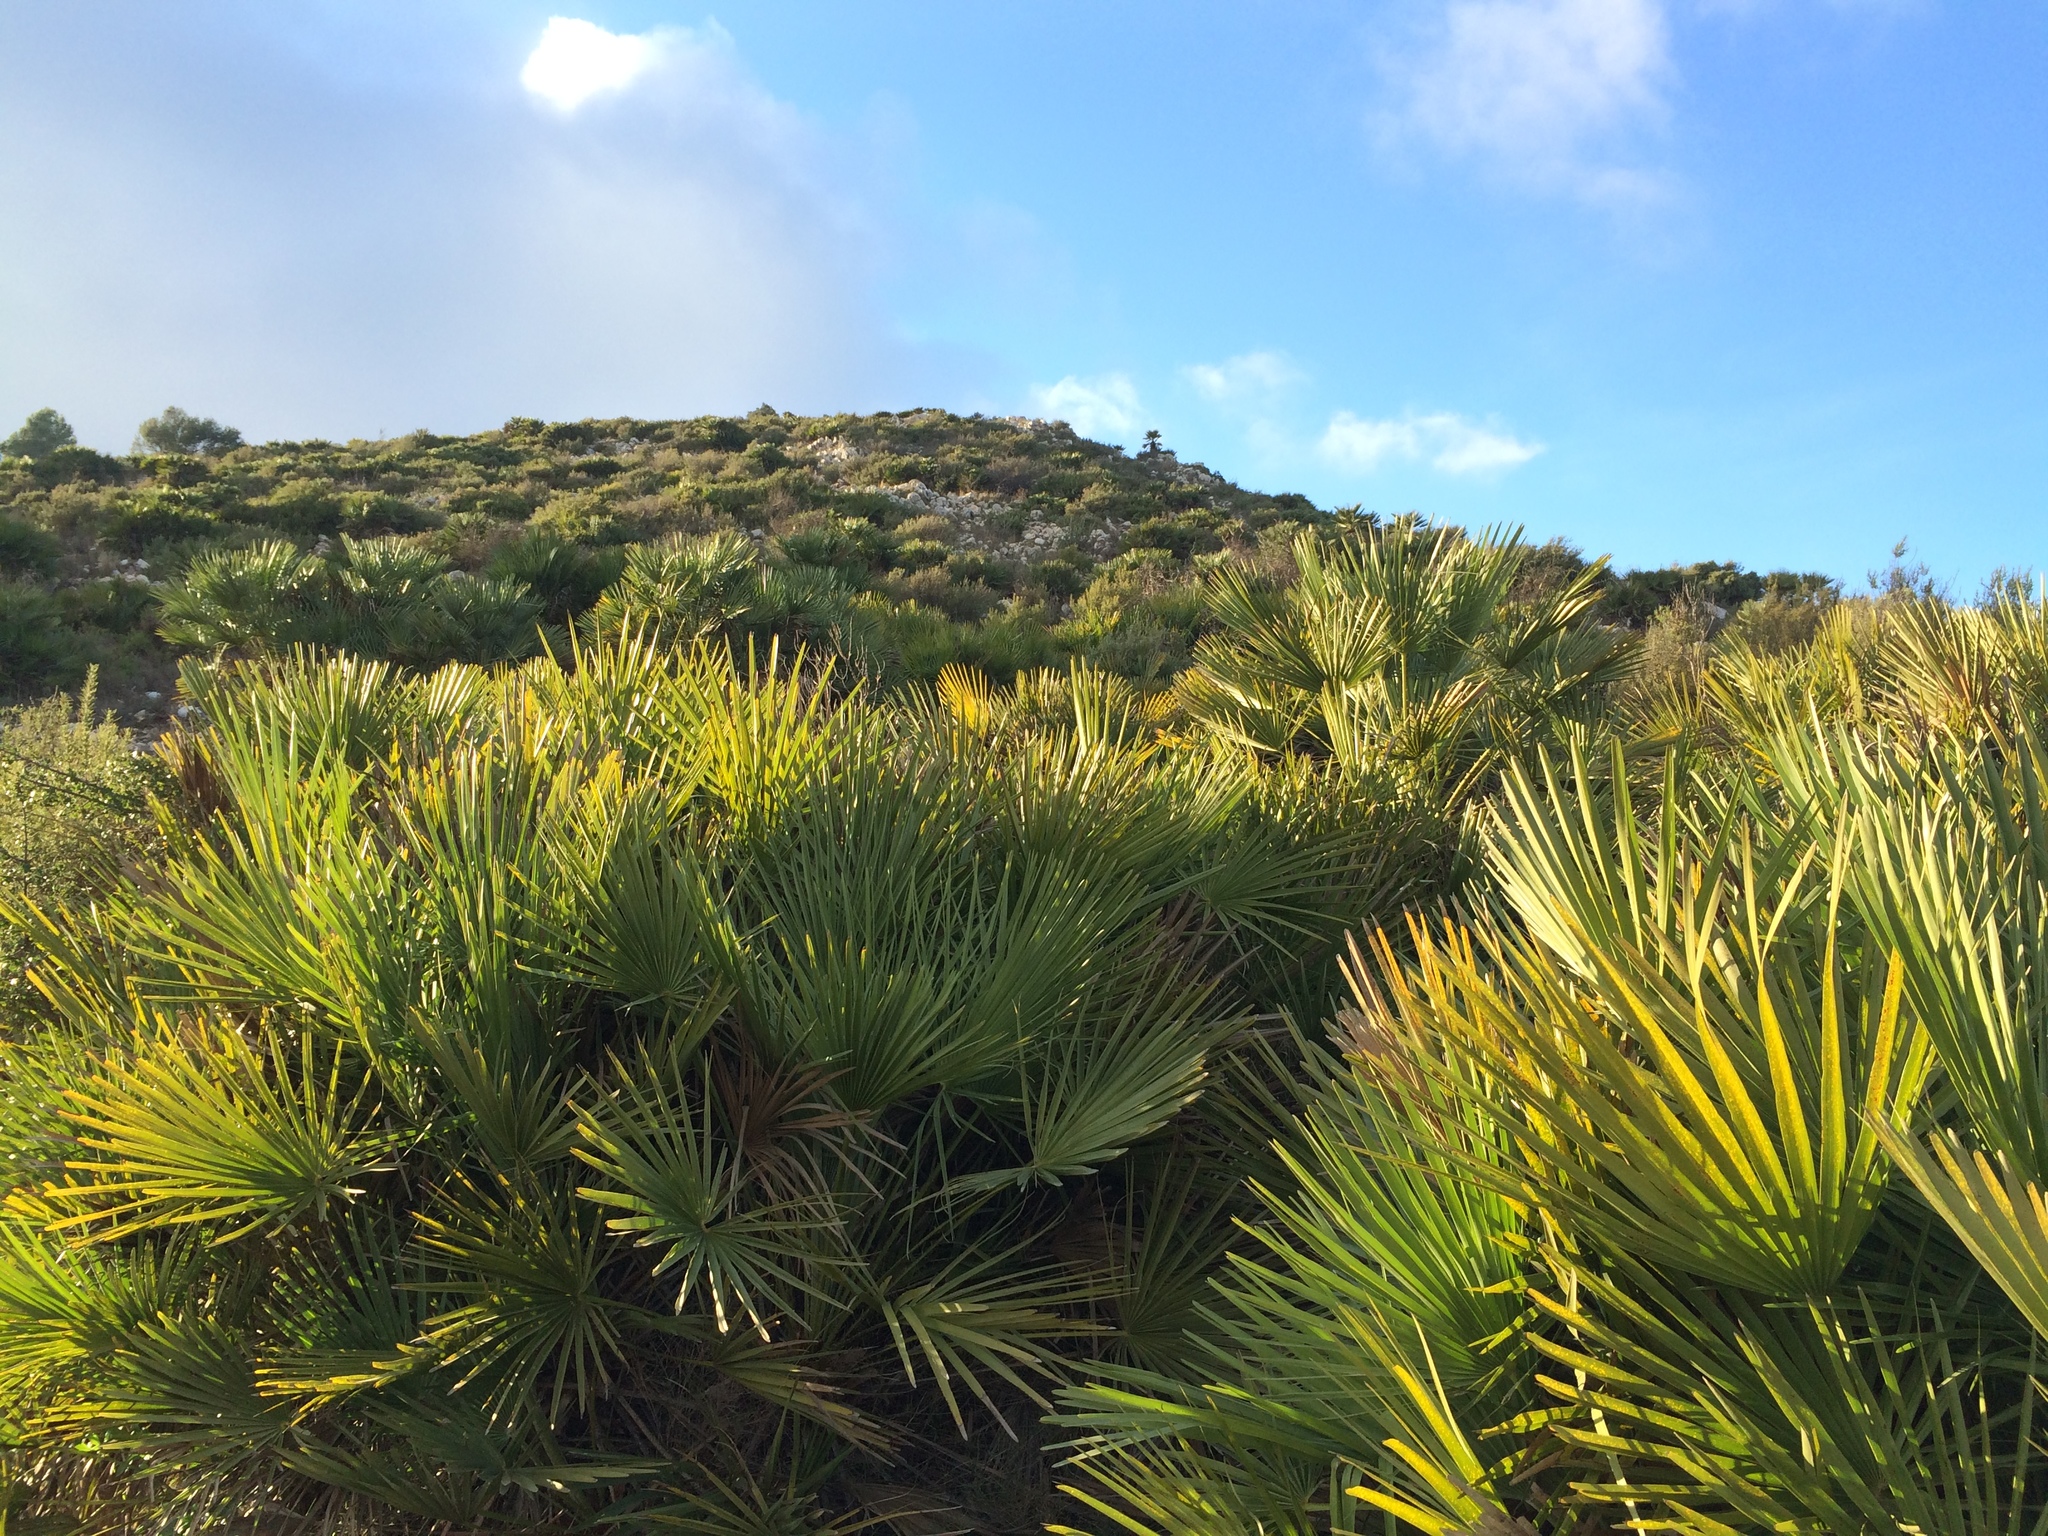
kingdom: Plantae
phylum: Tracheophyta
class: Liliopsida
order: Arecales
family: Arecaceae
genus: Chamaerops
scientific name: Chamaerops humilis
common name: Dwarf fan palm
